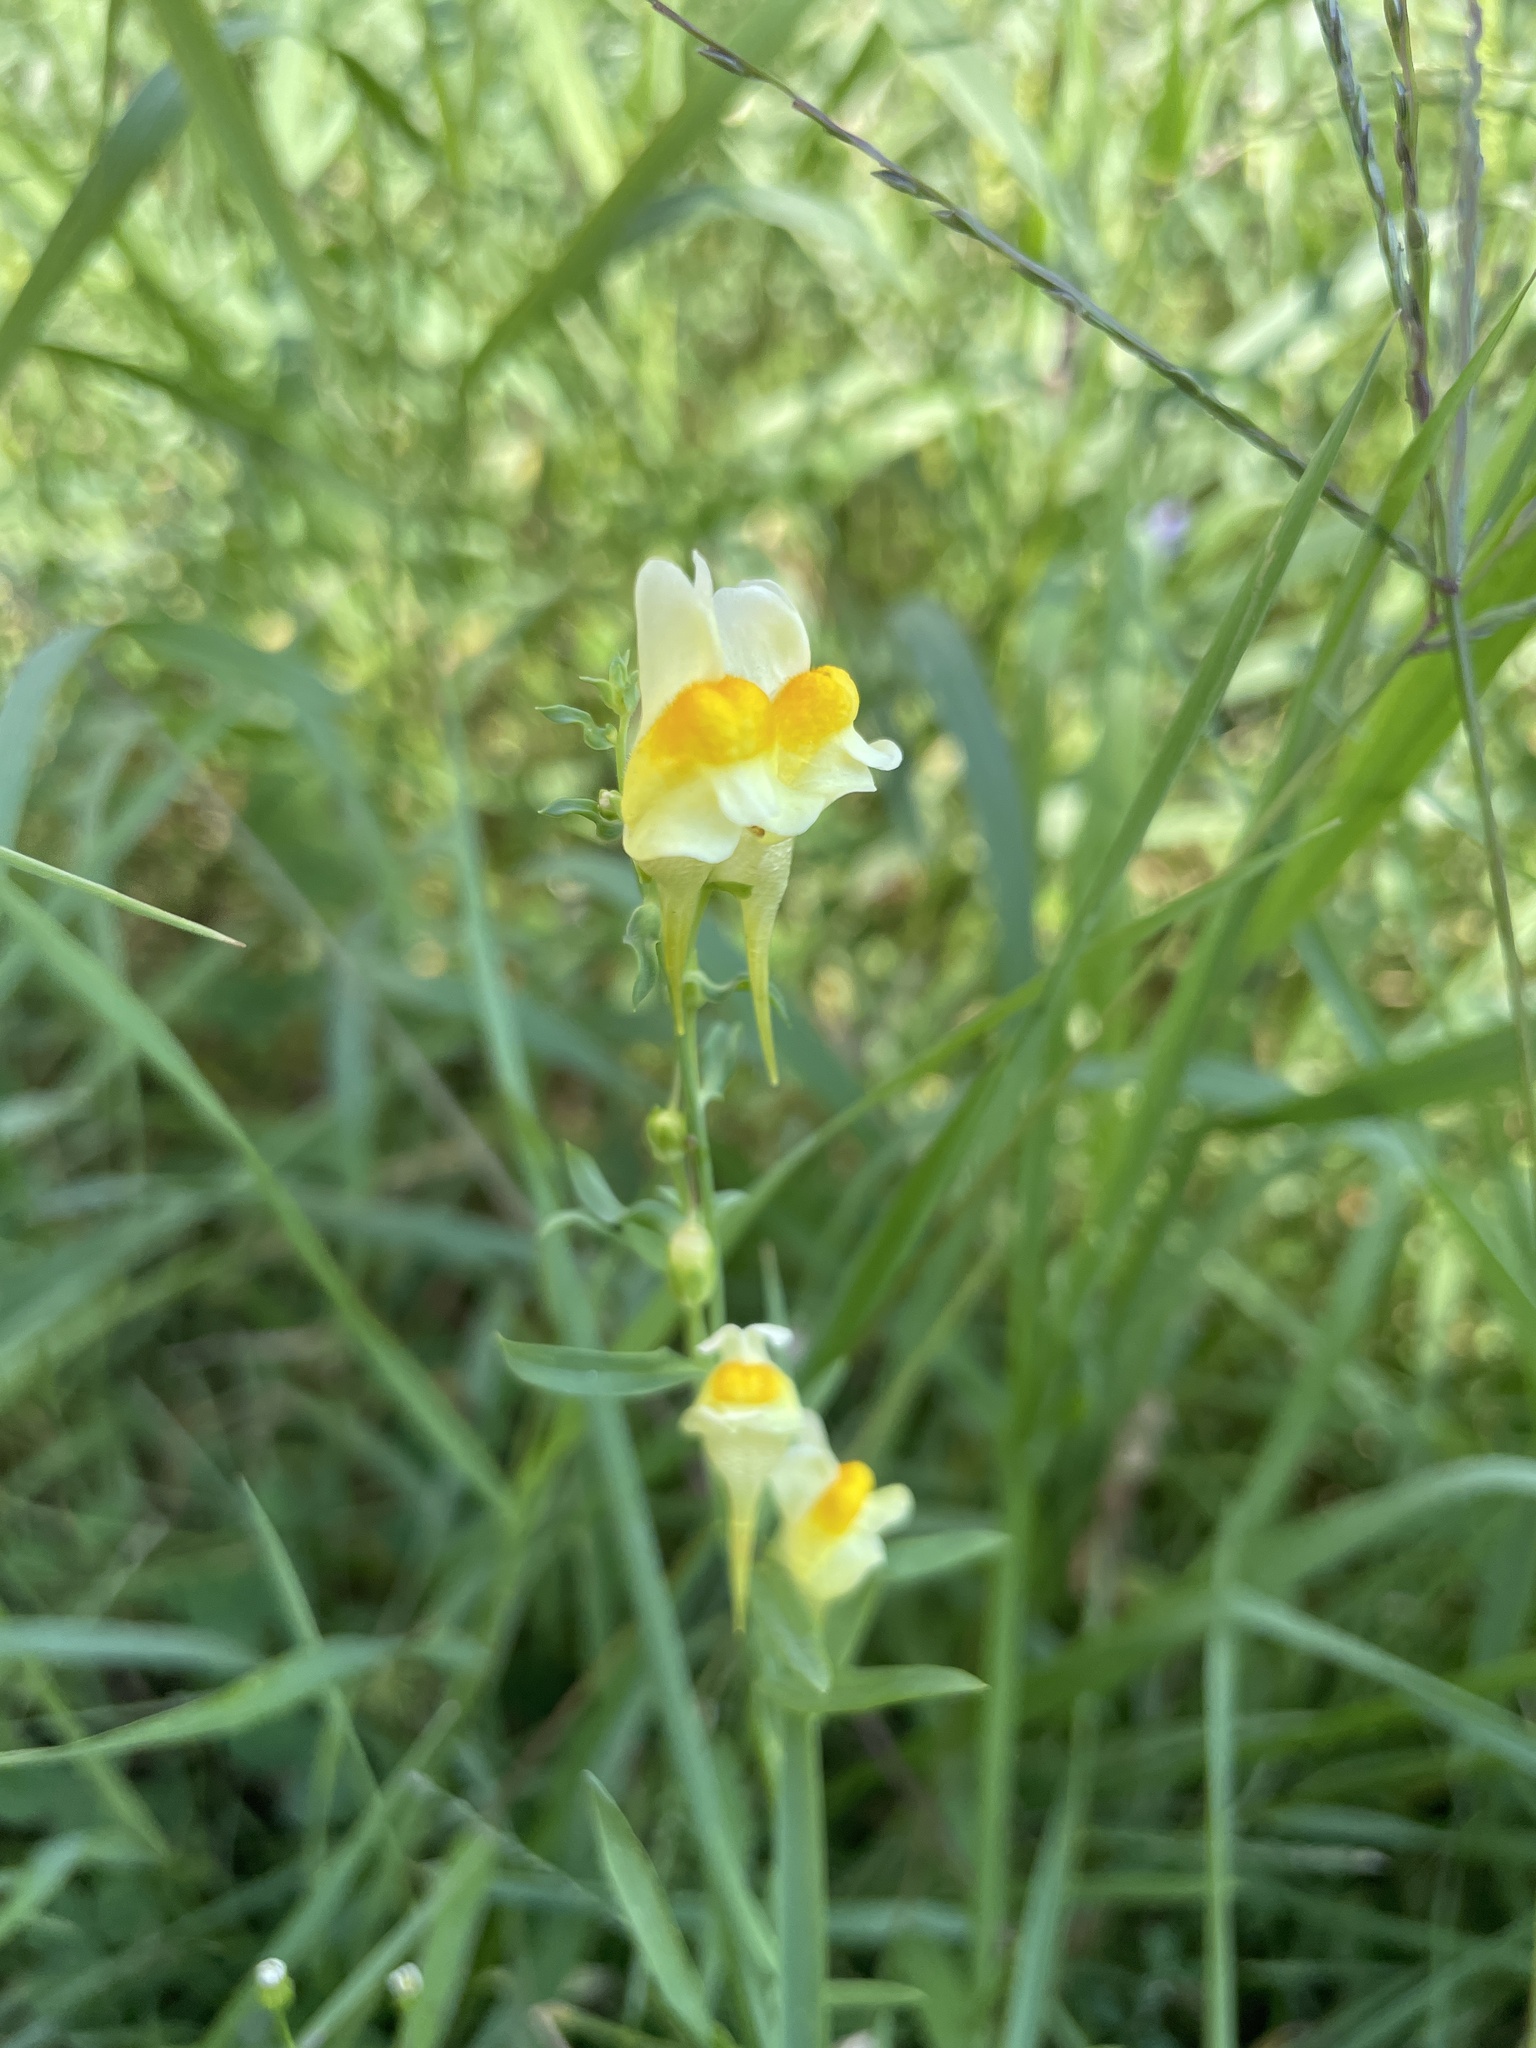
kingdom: Plantae
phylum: Tracheophyta
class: Magnoliopsida
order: Lamiales
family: Plantaginaceae
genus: Linaria
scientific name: Linaria vulgaris
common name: Butter and eggs
